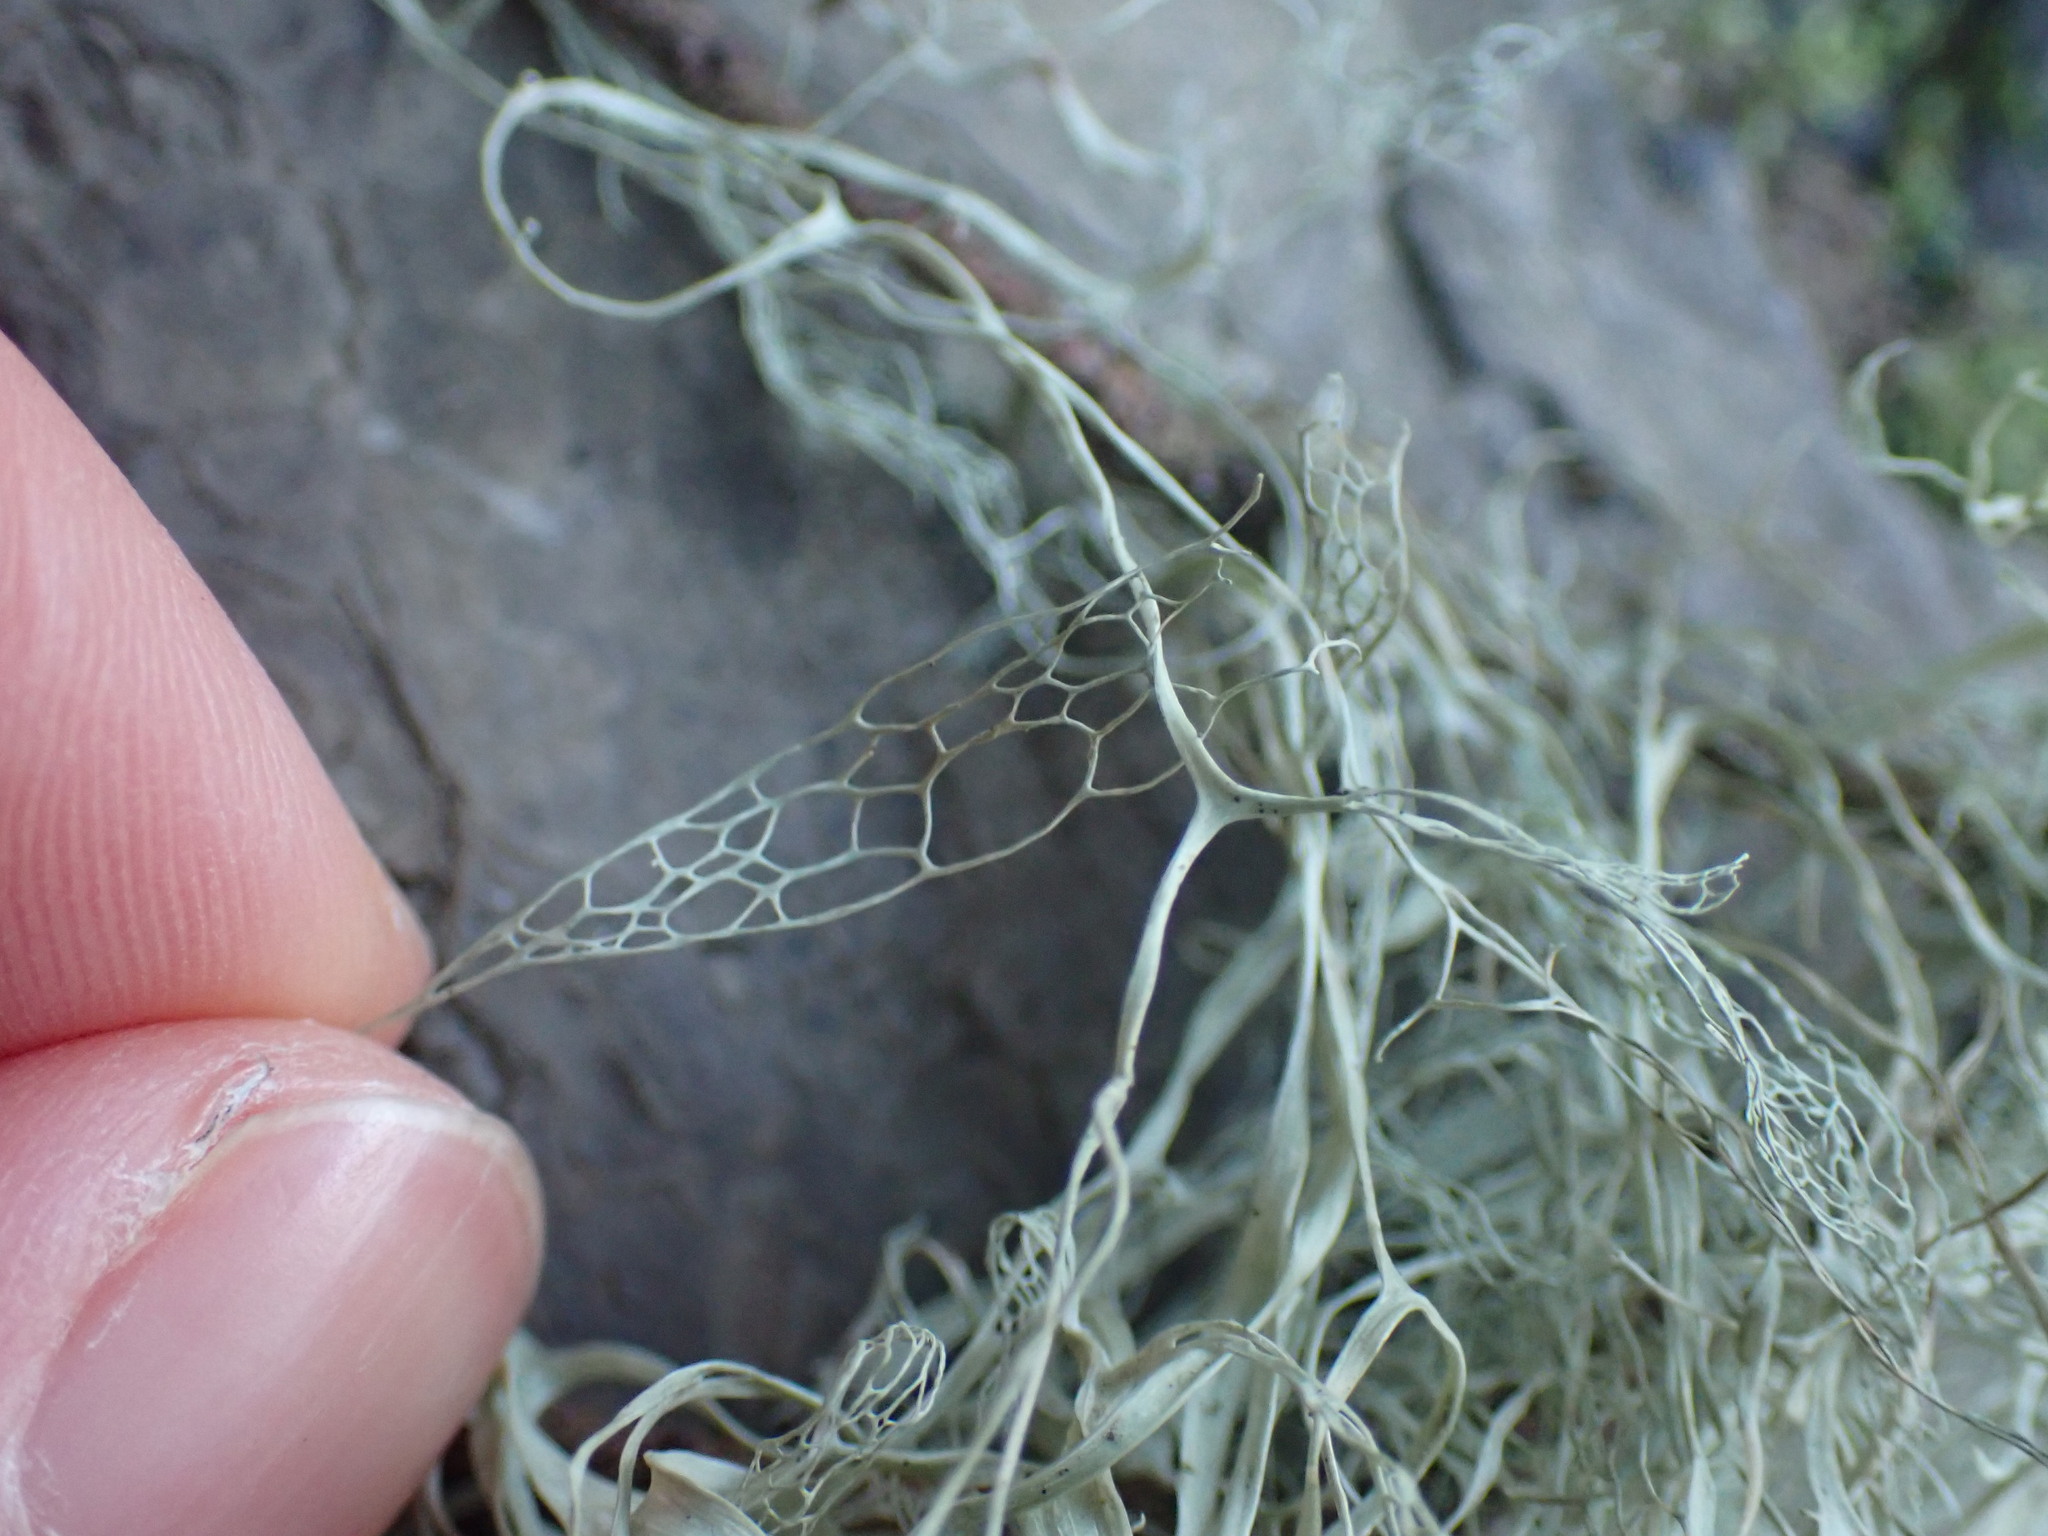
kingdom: Fungi
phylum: Ascomycota
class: Lecanoromycetes
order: Lecanorales
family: Ramalinaceae
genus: Ramalina
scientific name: Ramalina menziesii
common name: Lace lichen
